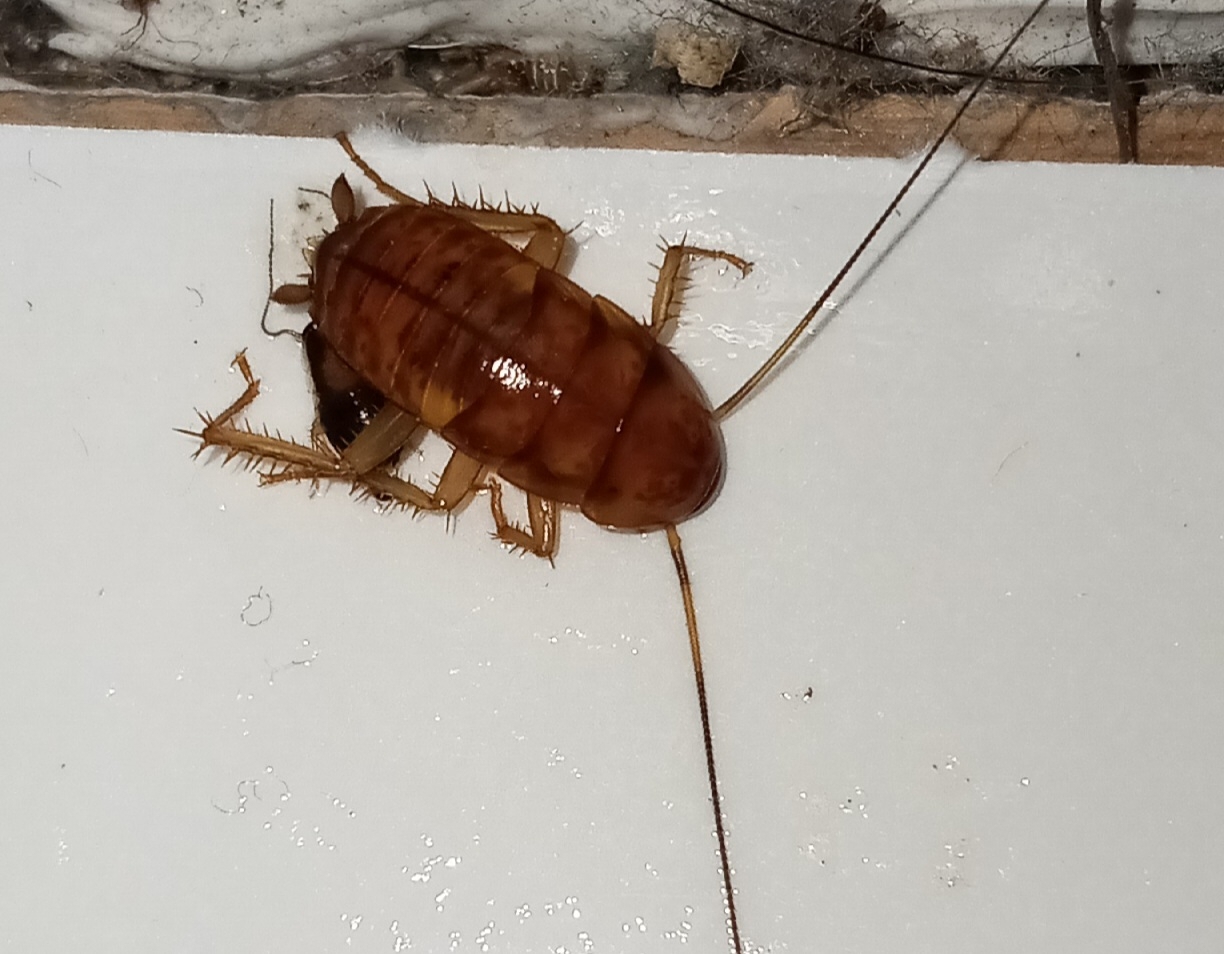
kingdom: Animalia
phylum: Arthropoda
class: Insecta
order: Blattodea
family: Blattidae
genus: Periplaneta
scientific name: Periplaneta americana
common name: American cockroach
